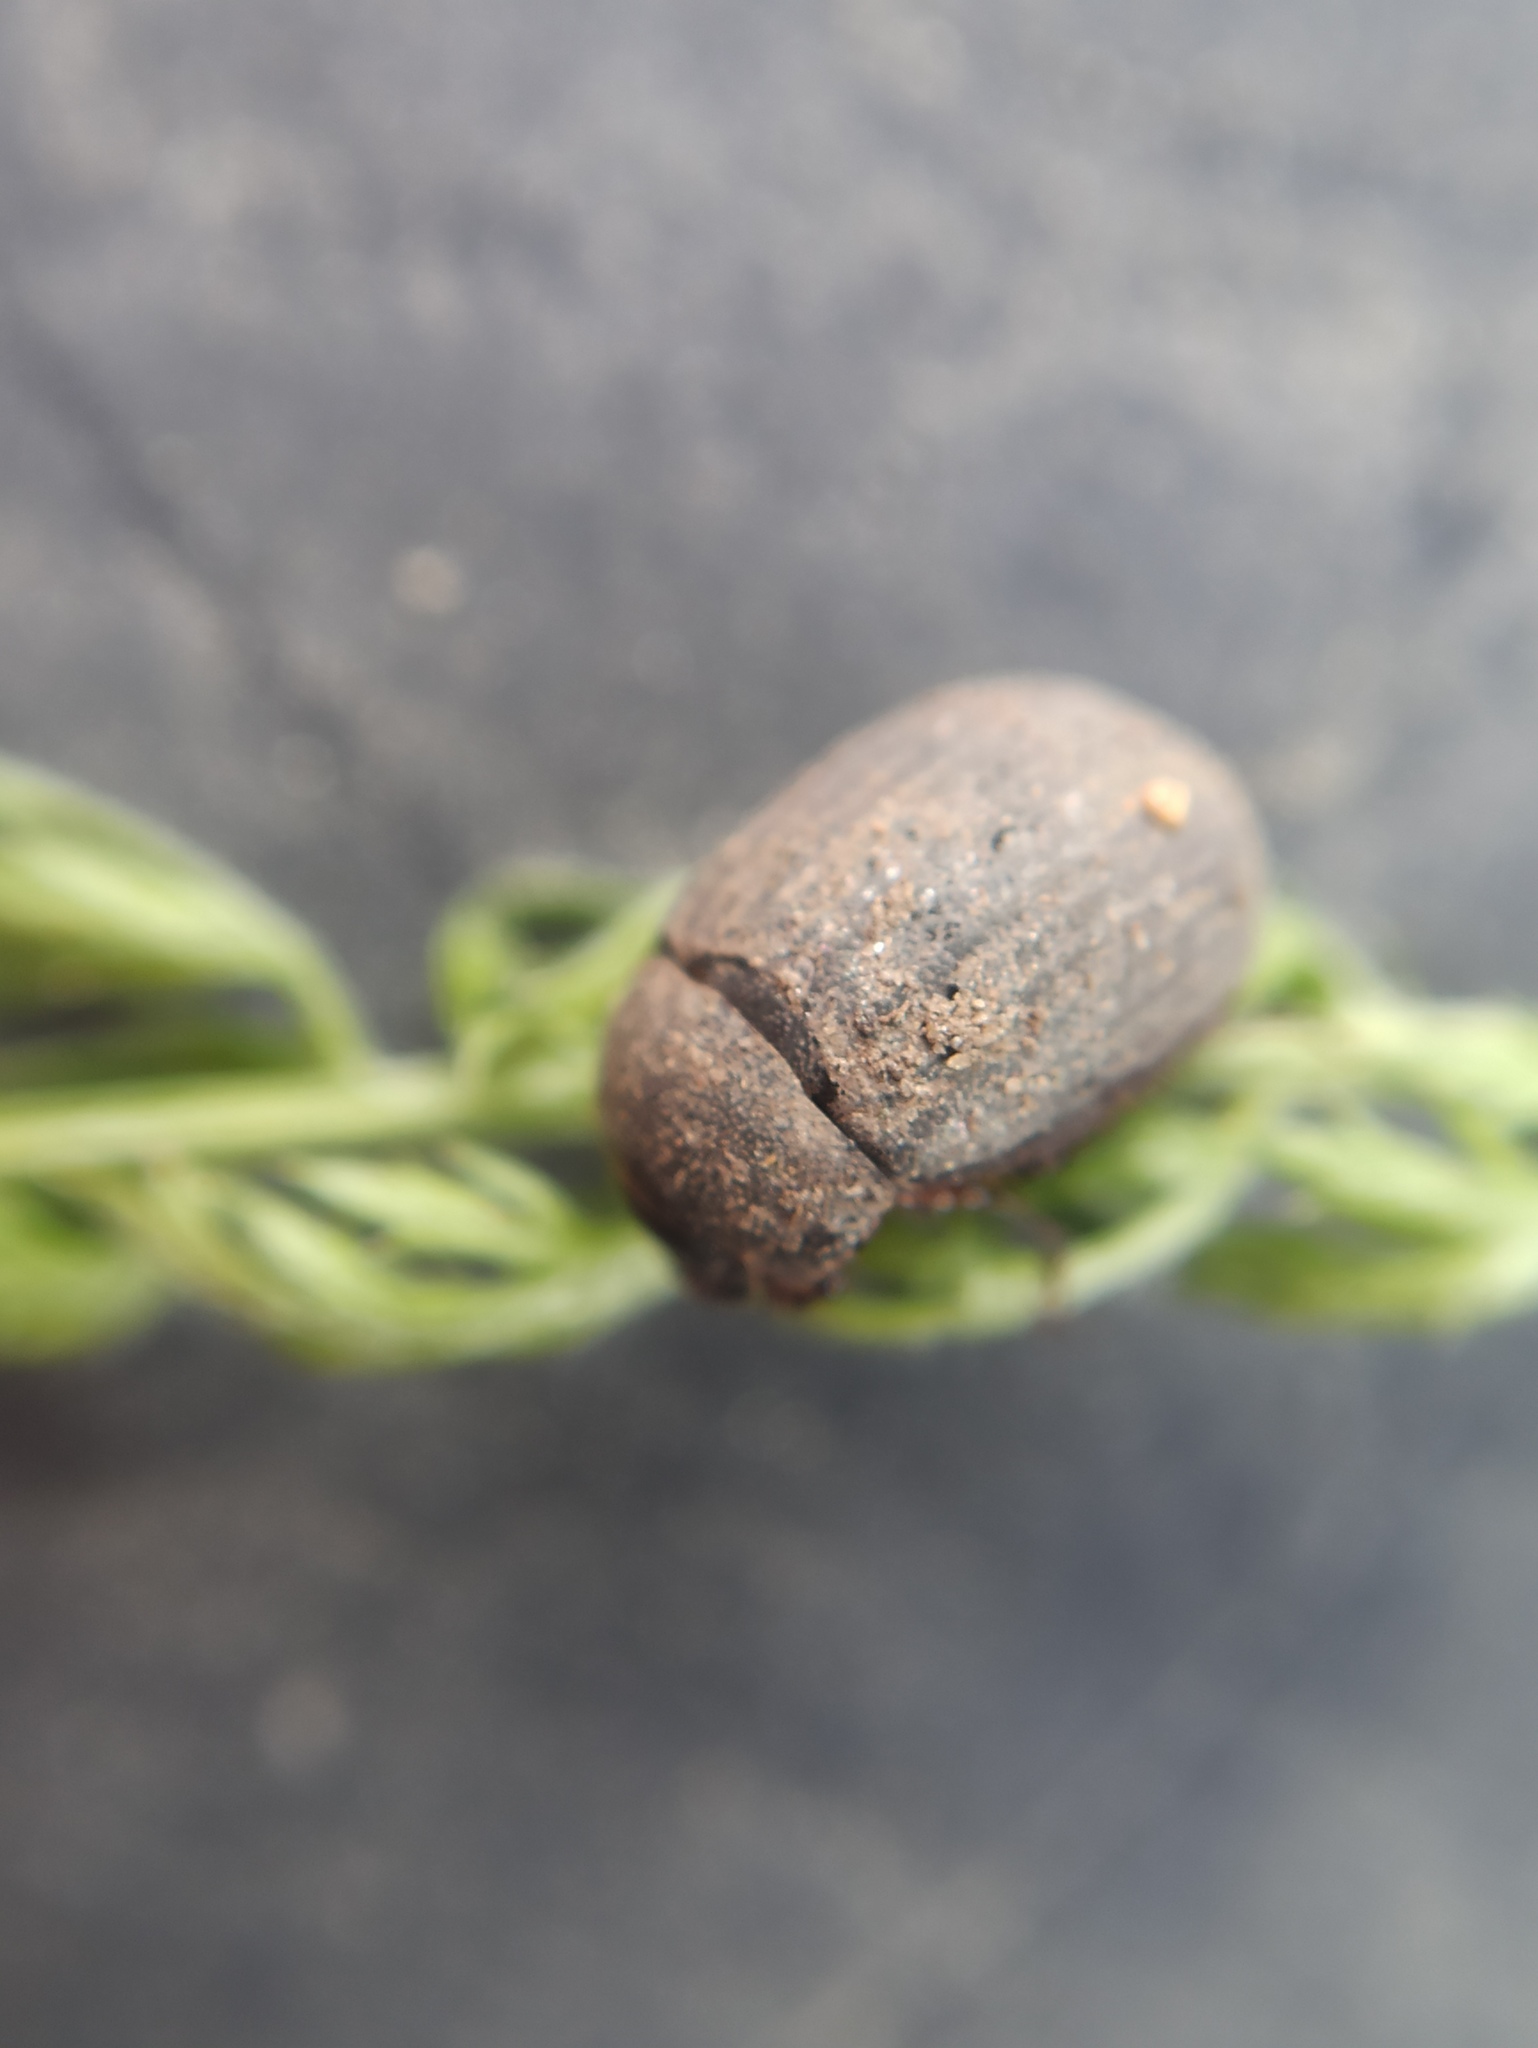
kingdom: Animalia
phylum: Arthropoda
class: Insecta
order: Coleoptera
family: Scarabaeidae
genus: Maladera
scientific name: Maladera holosericea
